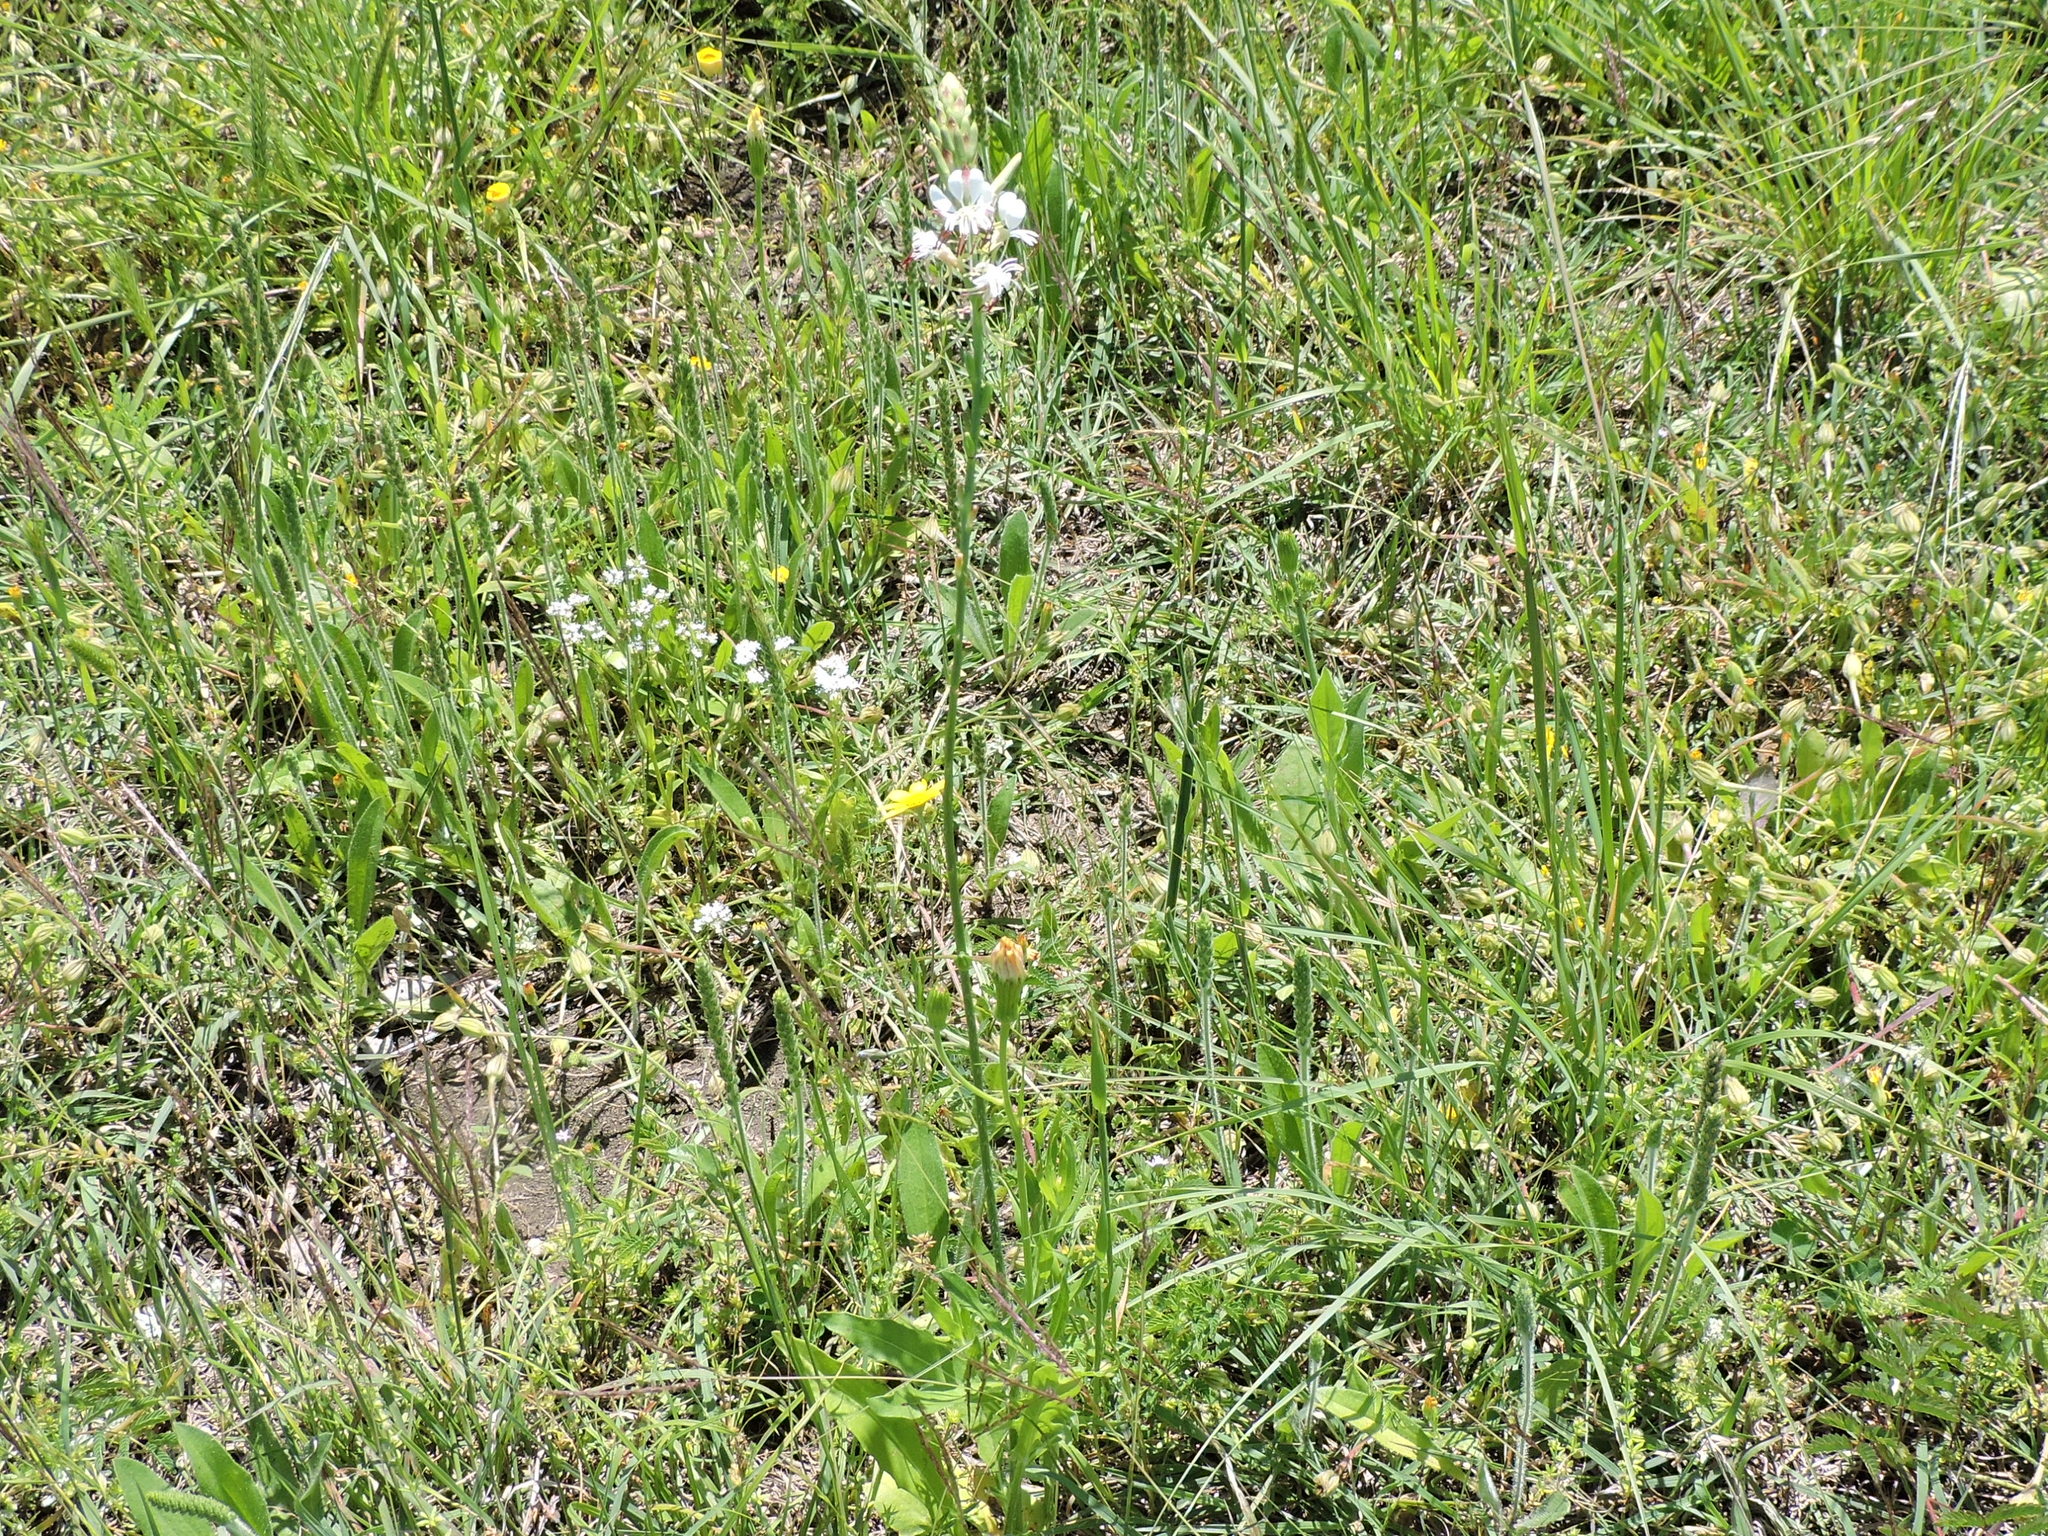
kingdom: Plantae
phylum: Tracheophyta
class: Magnoliopsida
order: Myrtales
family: Onagraceae
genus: Oenothera
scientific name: Oenothera suffulta
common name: Kisses
